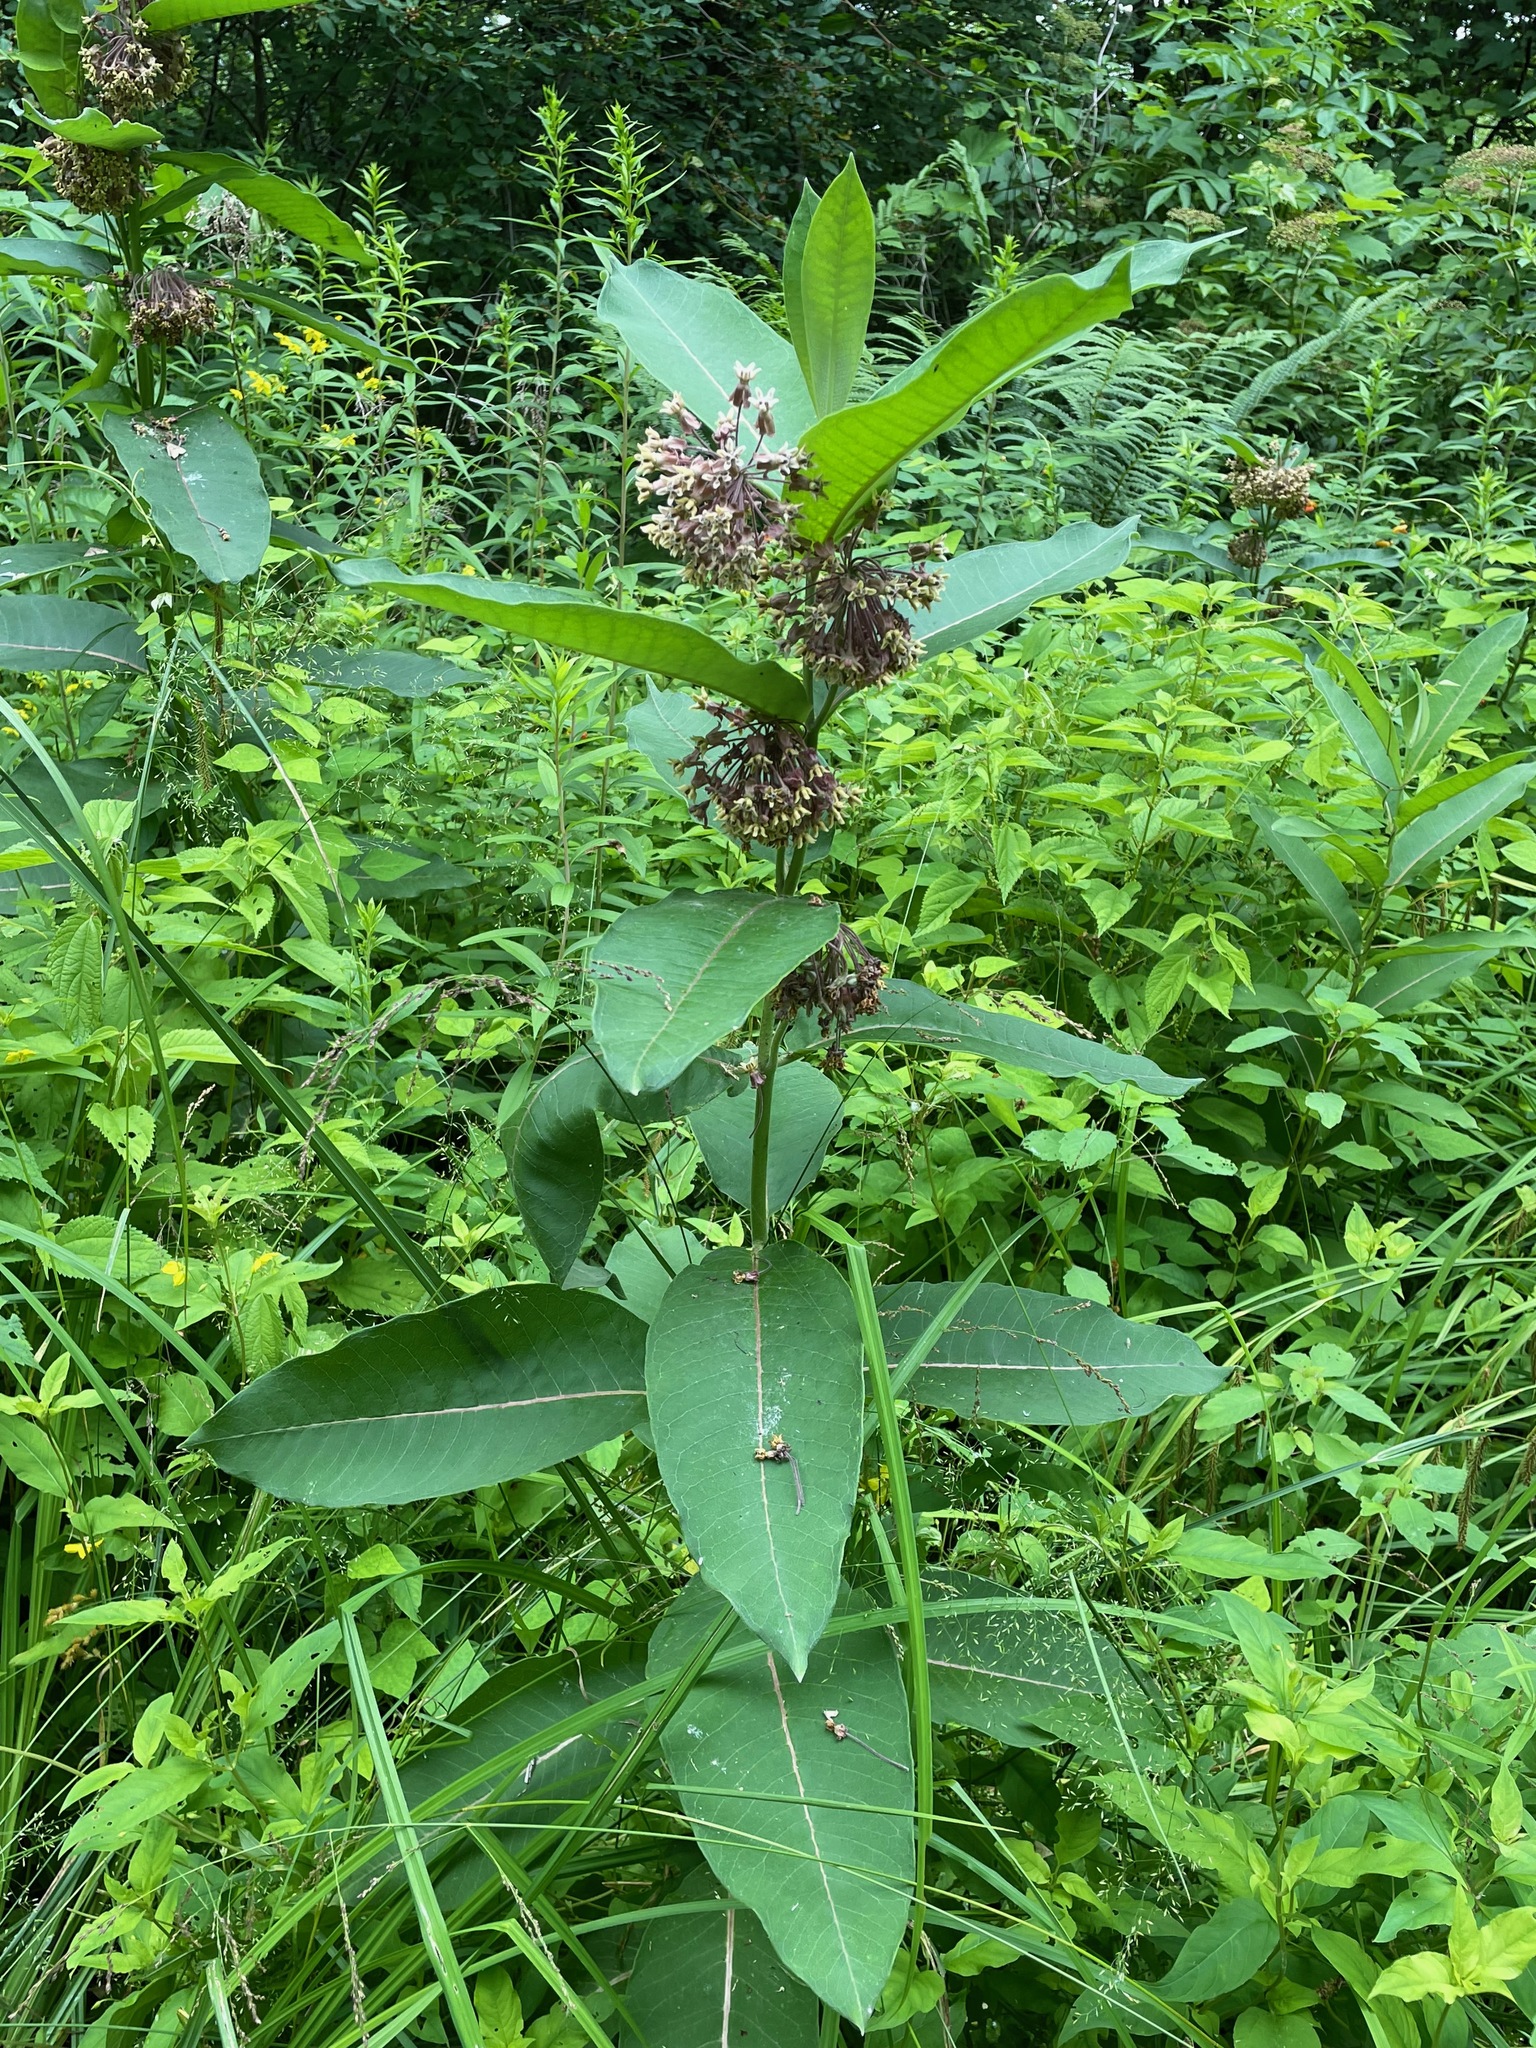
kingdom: Plantae
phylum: Tracheophyta
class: Magnoliopsida
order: Gentianales
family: Apocynaceae
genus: Asclepias
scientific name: Asclepias syriaca
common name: Common milkweed
